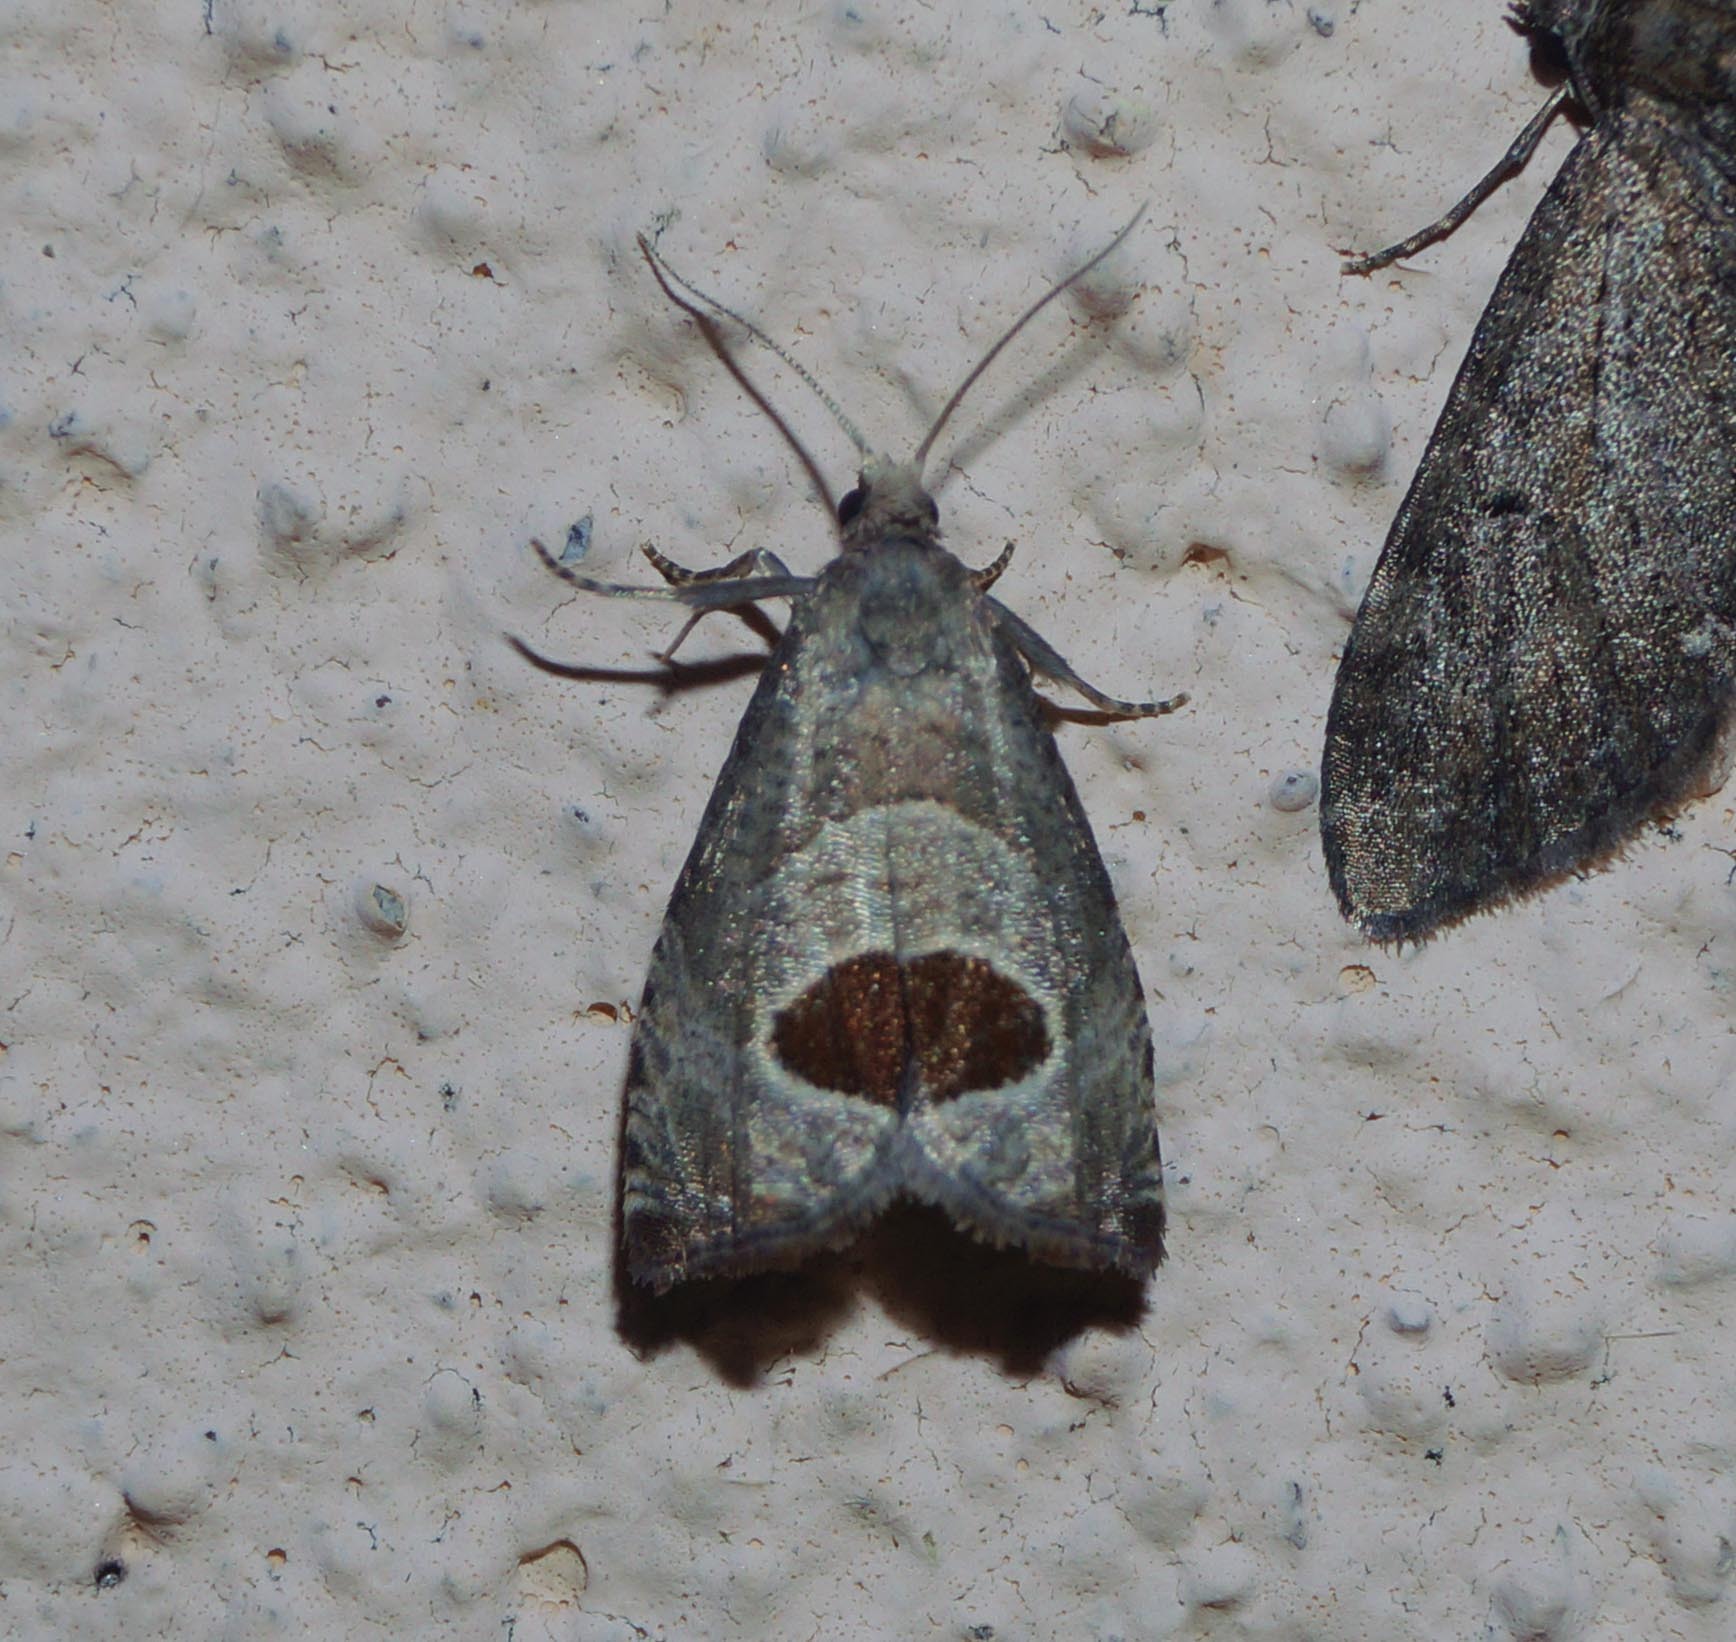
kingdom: Animalia
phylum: Arthropoda
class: Insecta
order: Lepidoptera
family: Tortricidae
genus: Notocelia
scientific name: Notocelia uddmanniana
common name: Bramble shoot moth
